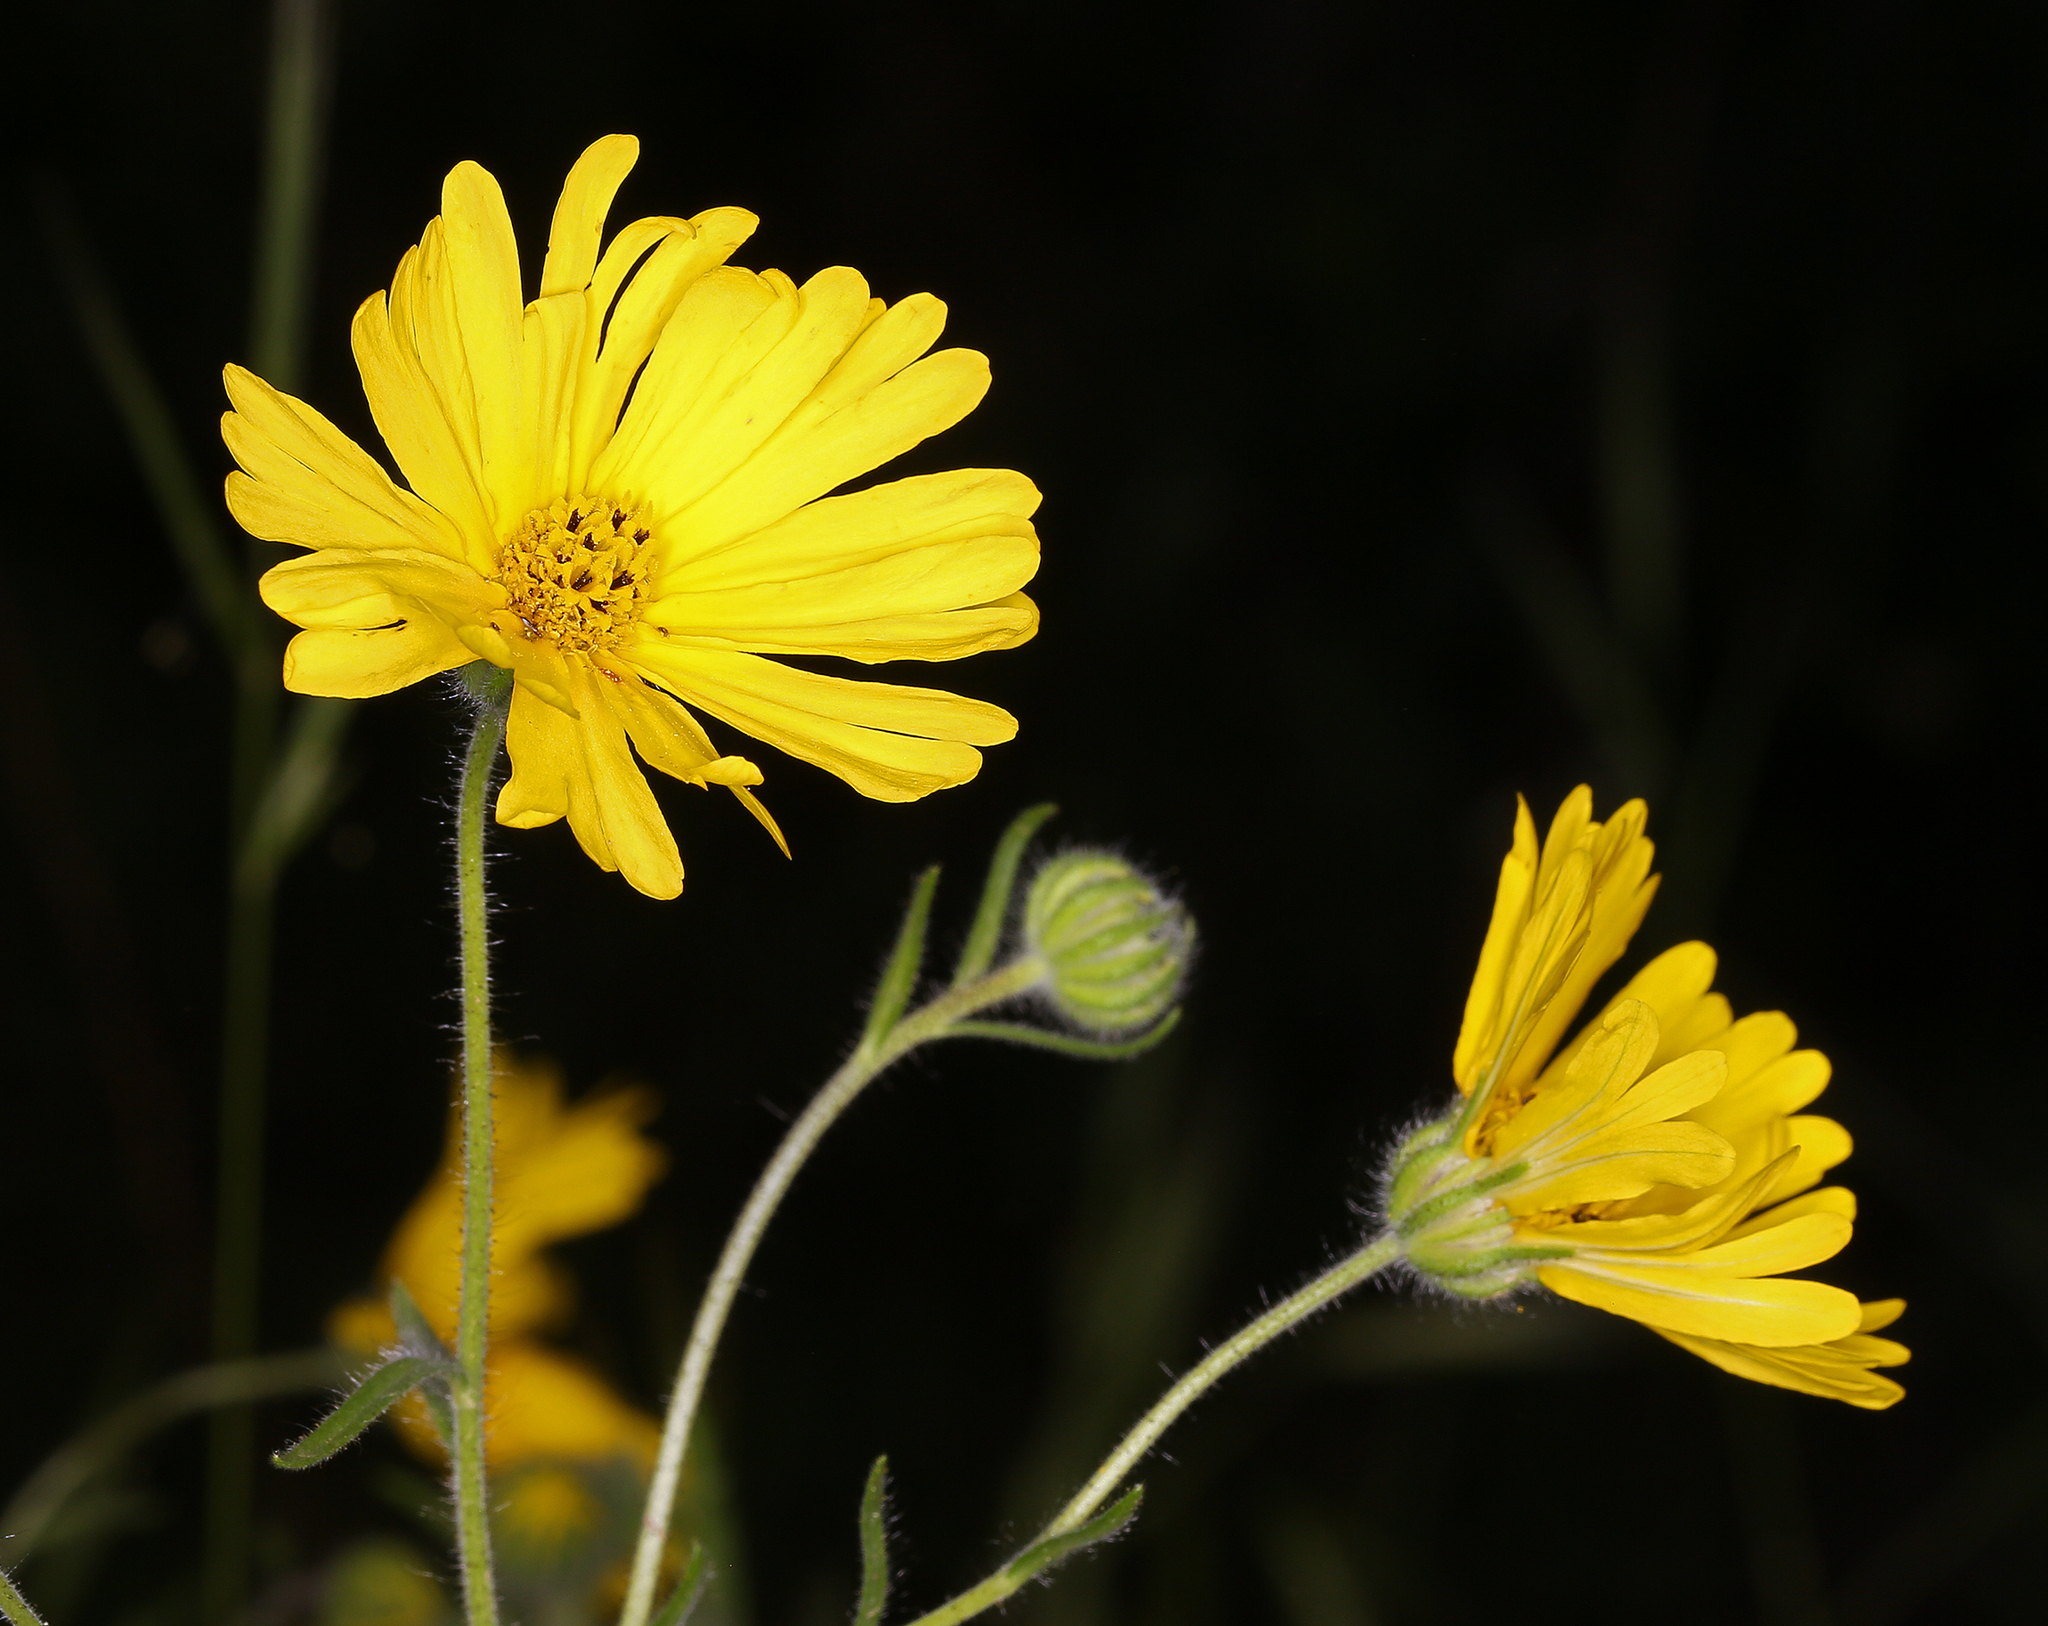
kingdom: Plantae
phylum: Tracheophyta
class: Magnoliopsida
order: Asterales
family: Asteraceae
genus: Madia
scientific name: Madia elegans
